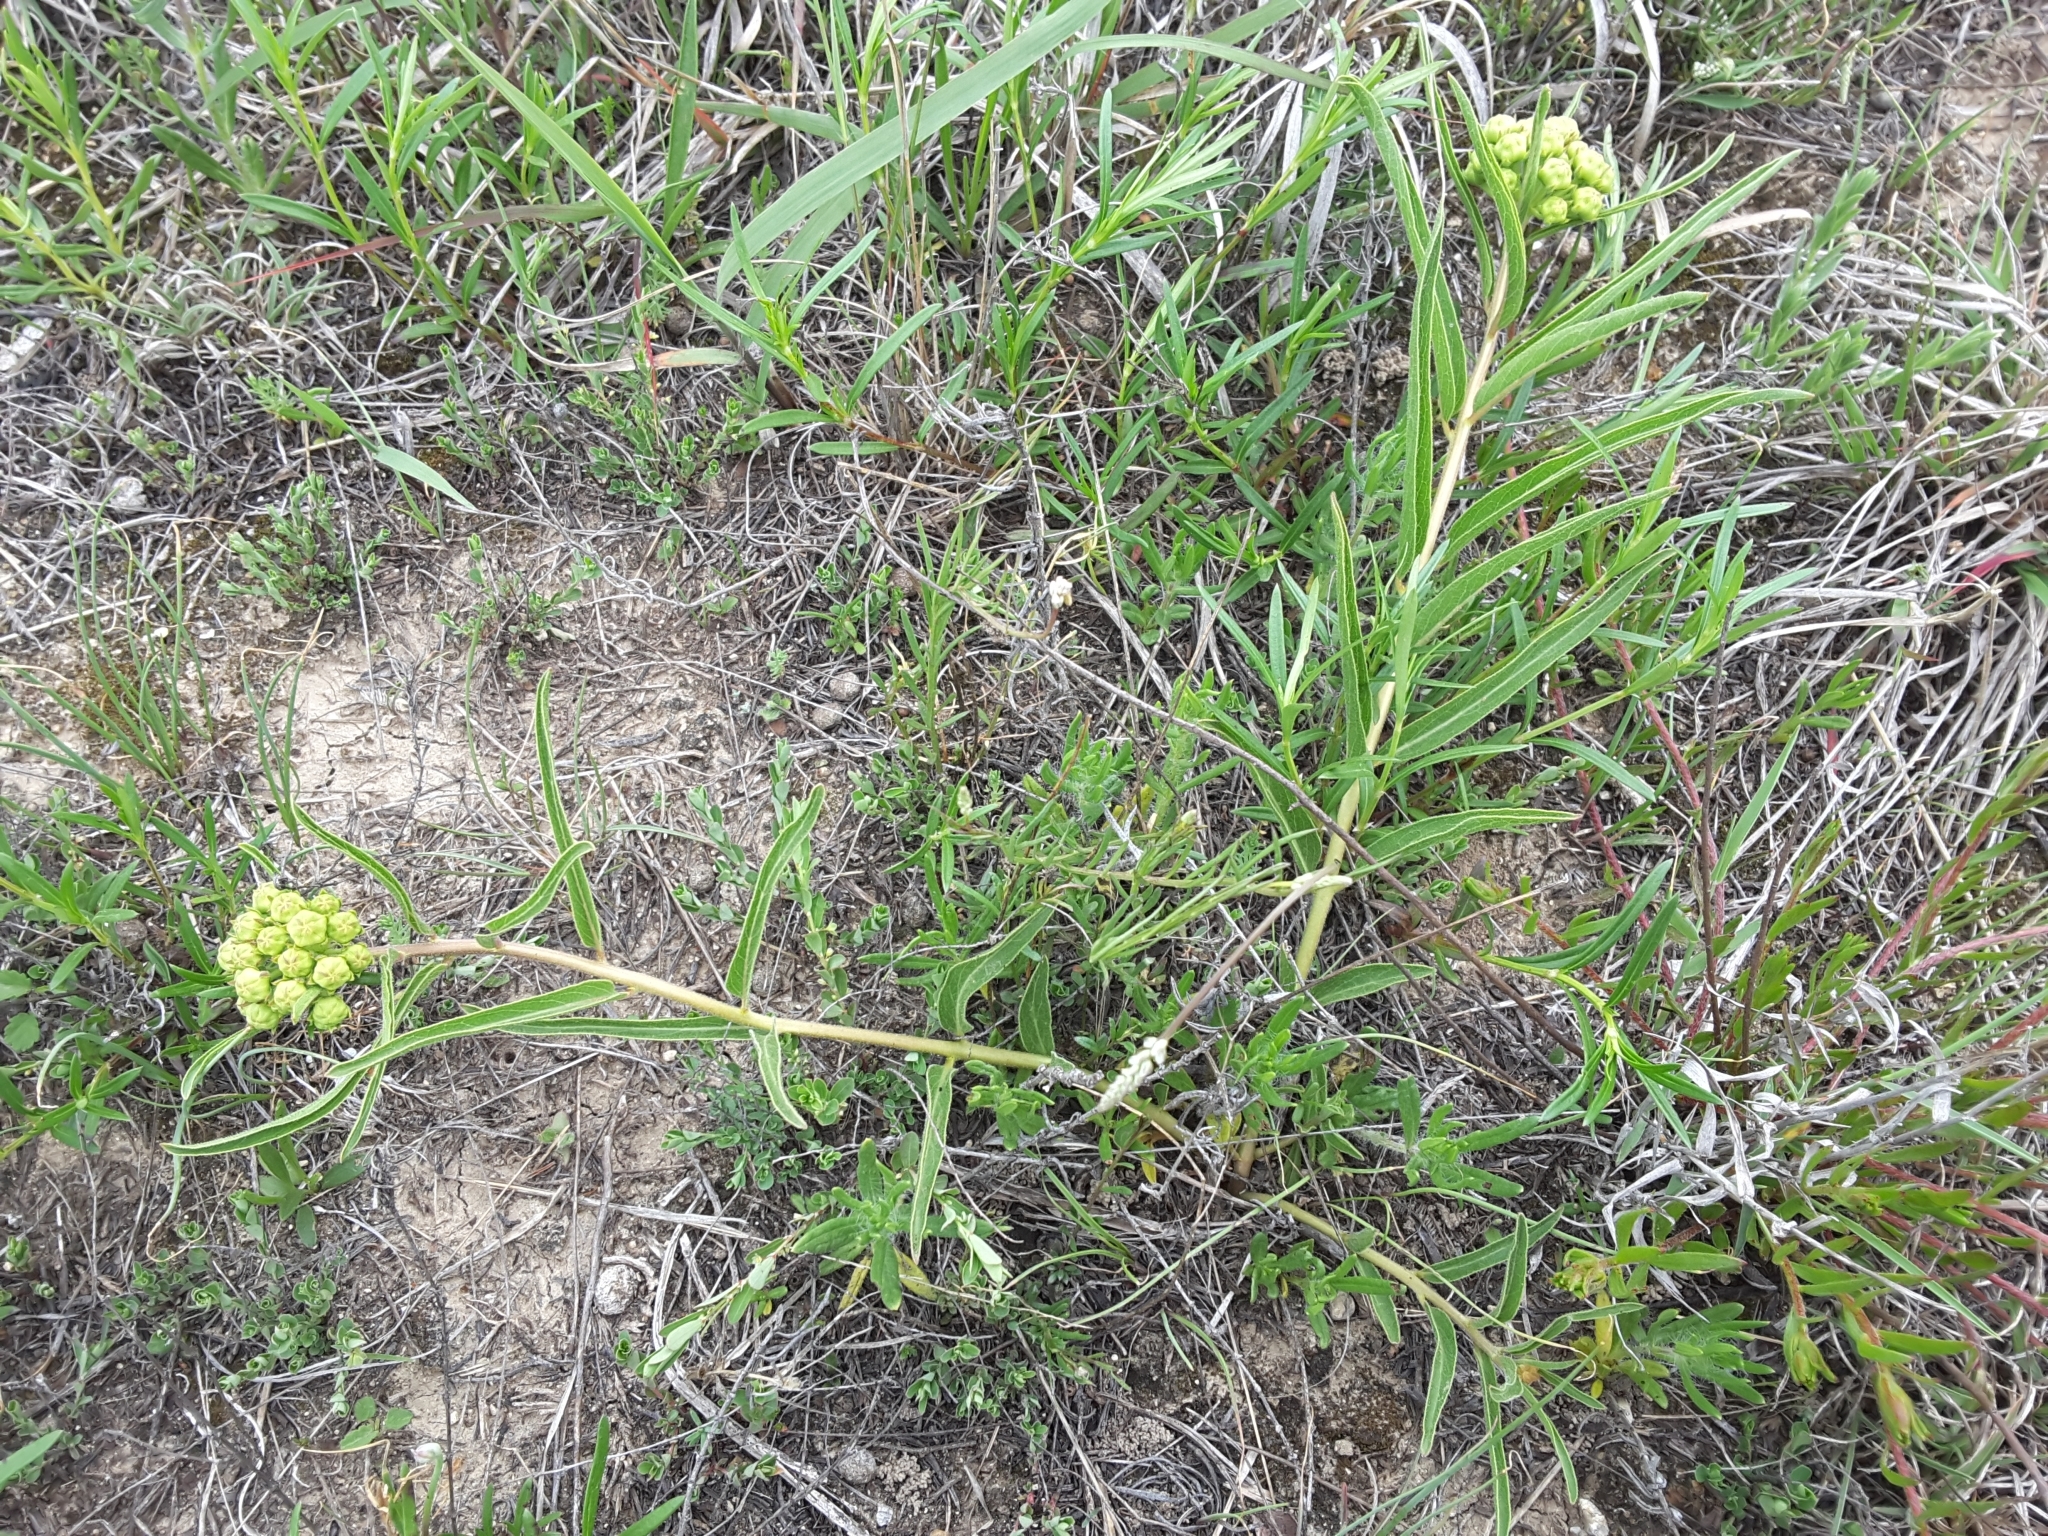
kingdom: Plantae
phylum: Tracheophyta
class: Magnoliopsida
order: Gentianales
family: Apocynaceae
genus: Asclepias
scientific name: Asclepias asperula
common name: Antelope horns
